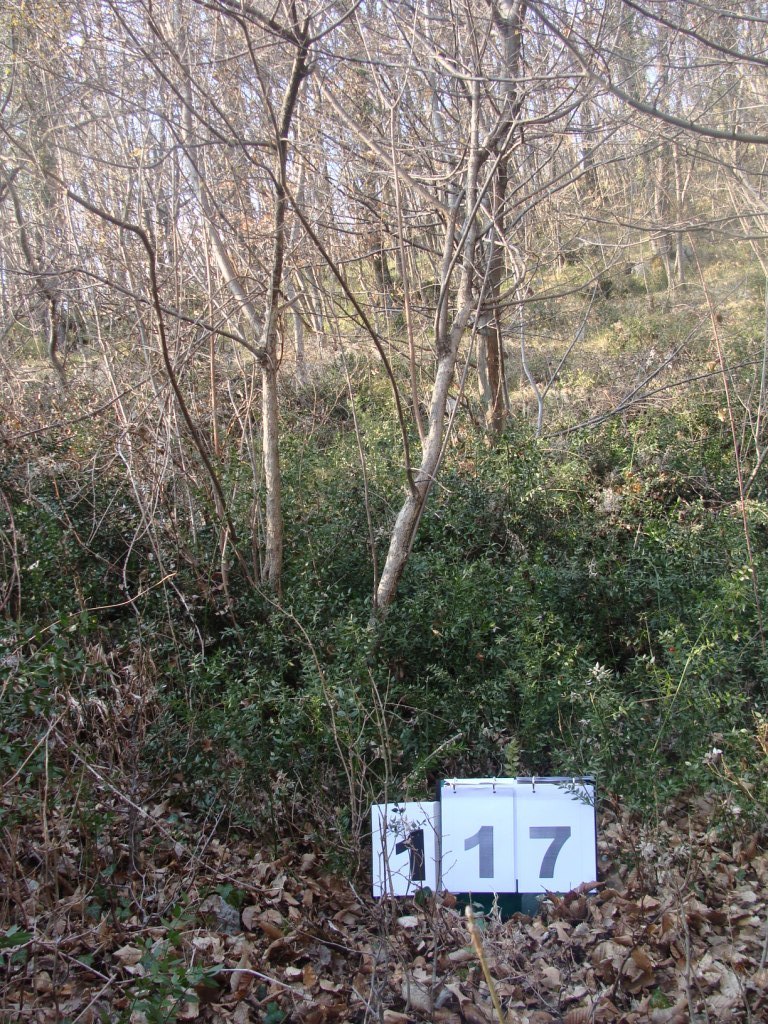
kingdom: Plantae
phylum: Tracheophyta
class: Magnoliopsida
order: Cornales
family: Cornaceae
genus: Cornus
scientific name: Cornus mas
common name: Cornelian-cherry
